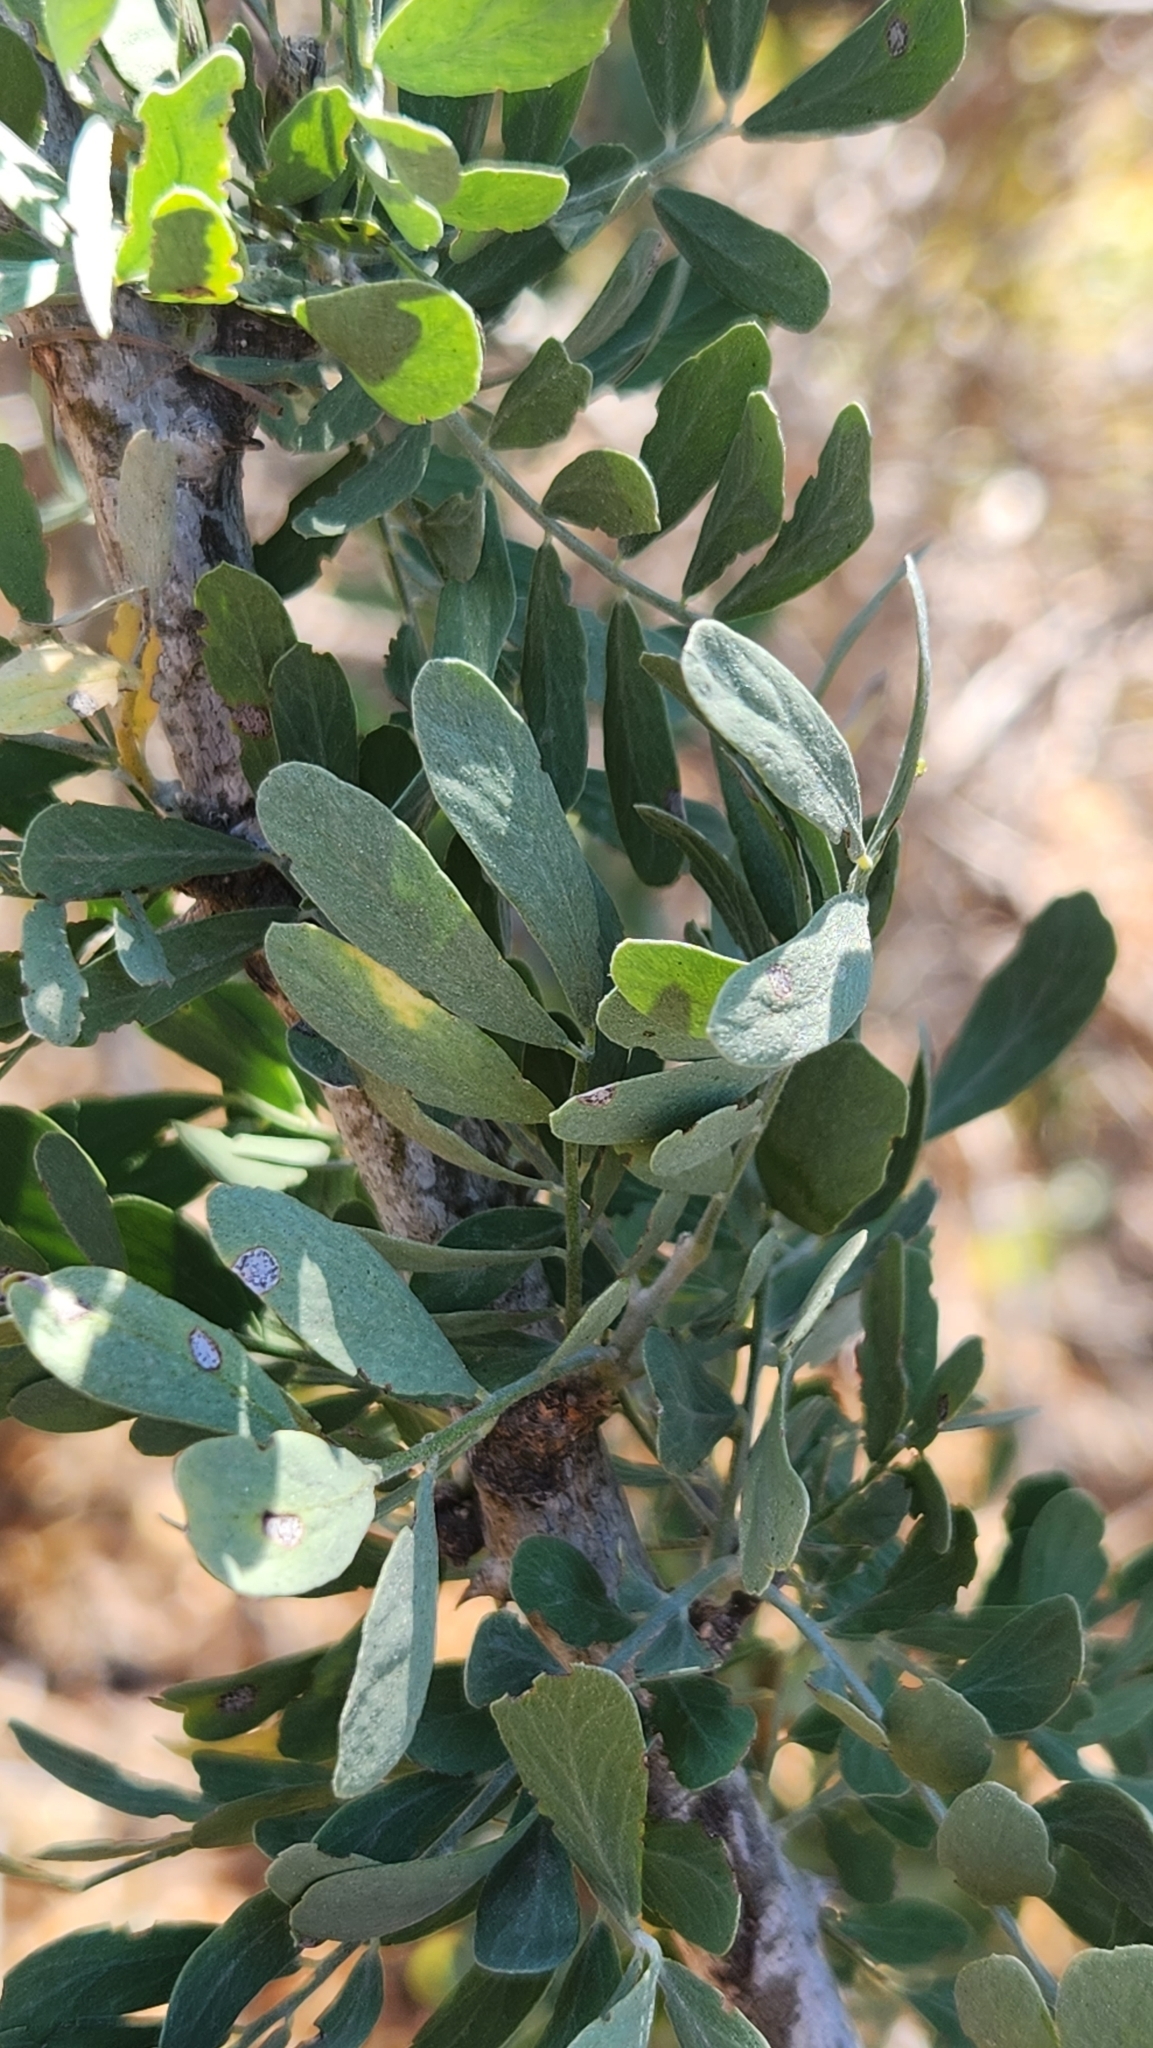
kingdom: Plantae
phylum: Tracheophyta
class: Magnoliopsida
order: Fabales
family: Fabaceae
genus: Olneya
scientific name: Olneya tesota
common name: Desert ironwood
